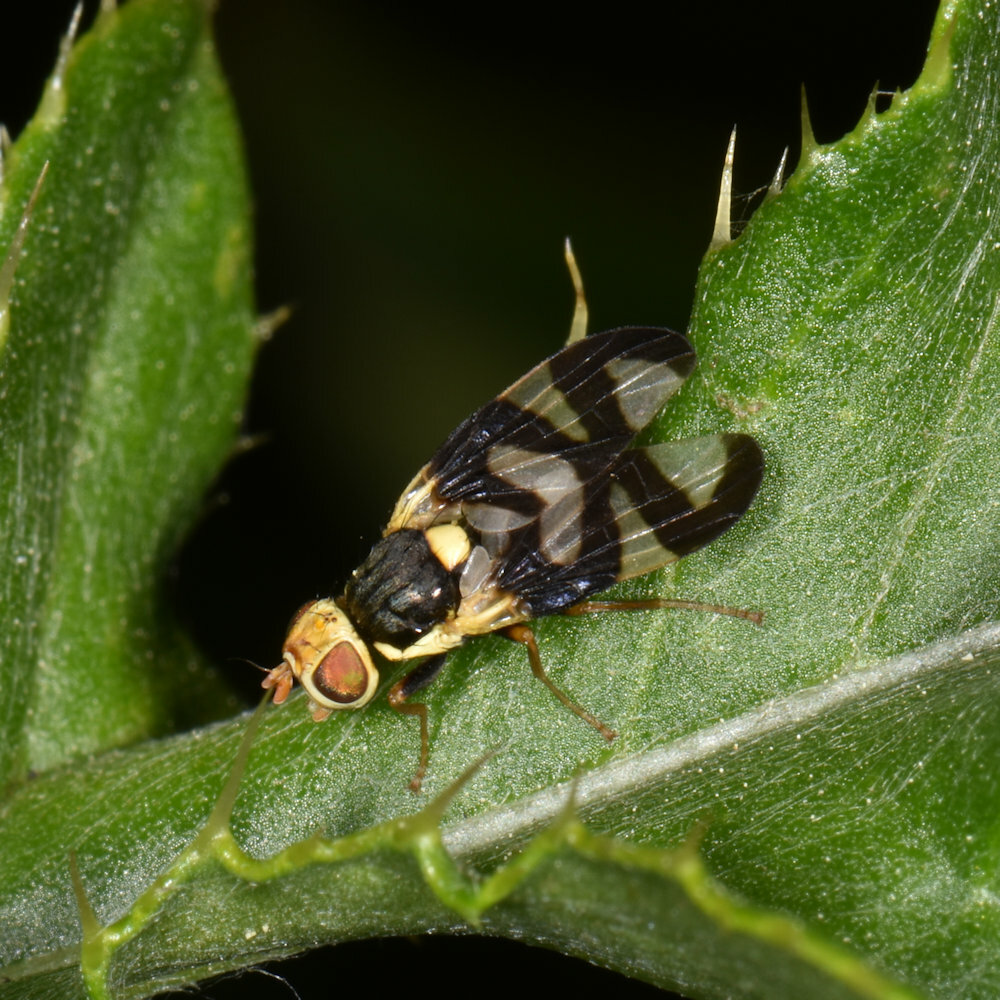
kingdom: Animalia
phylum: Arthropoda
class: Insecta
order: Diptera
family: Tephritidae
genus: Urophora
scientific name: Urophora cardui
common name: Fruit fly
